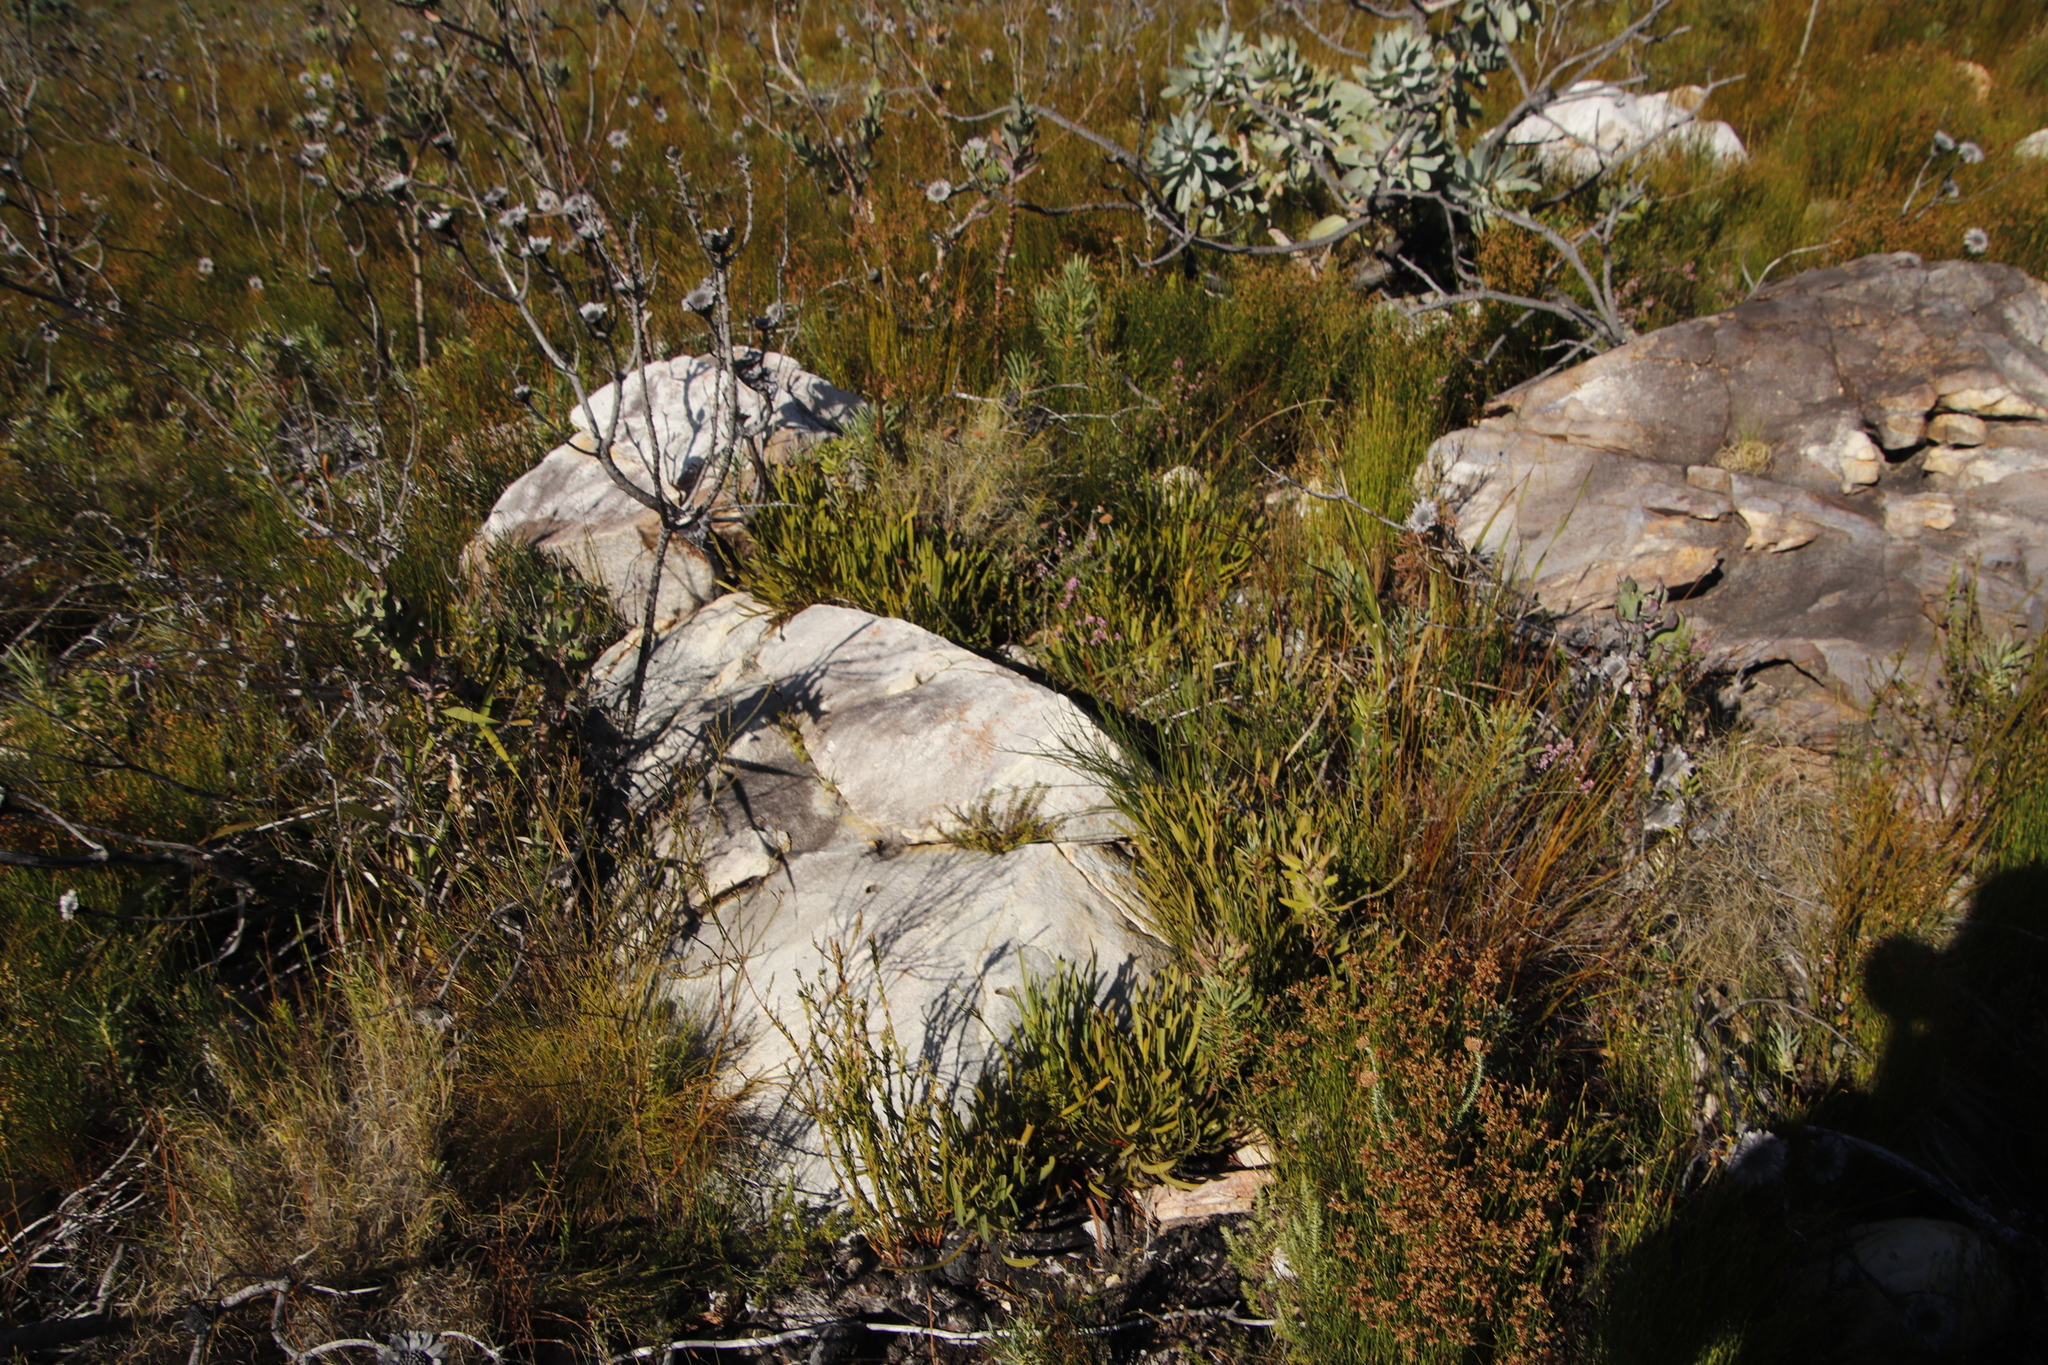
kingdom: Plantae
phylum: Tracheophyta
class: Magnoliopsida
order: Proteales
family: Proteaceae
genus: Protea
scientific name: Protea scabra
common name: Sandpaper-leaf sugarbush
